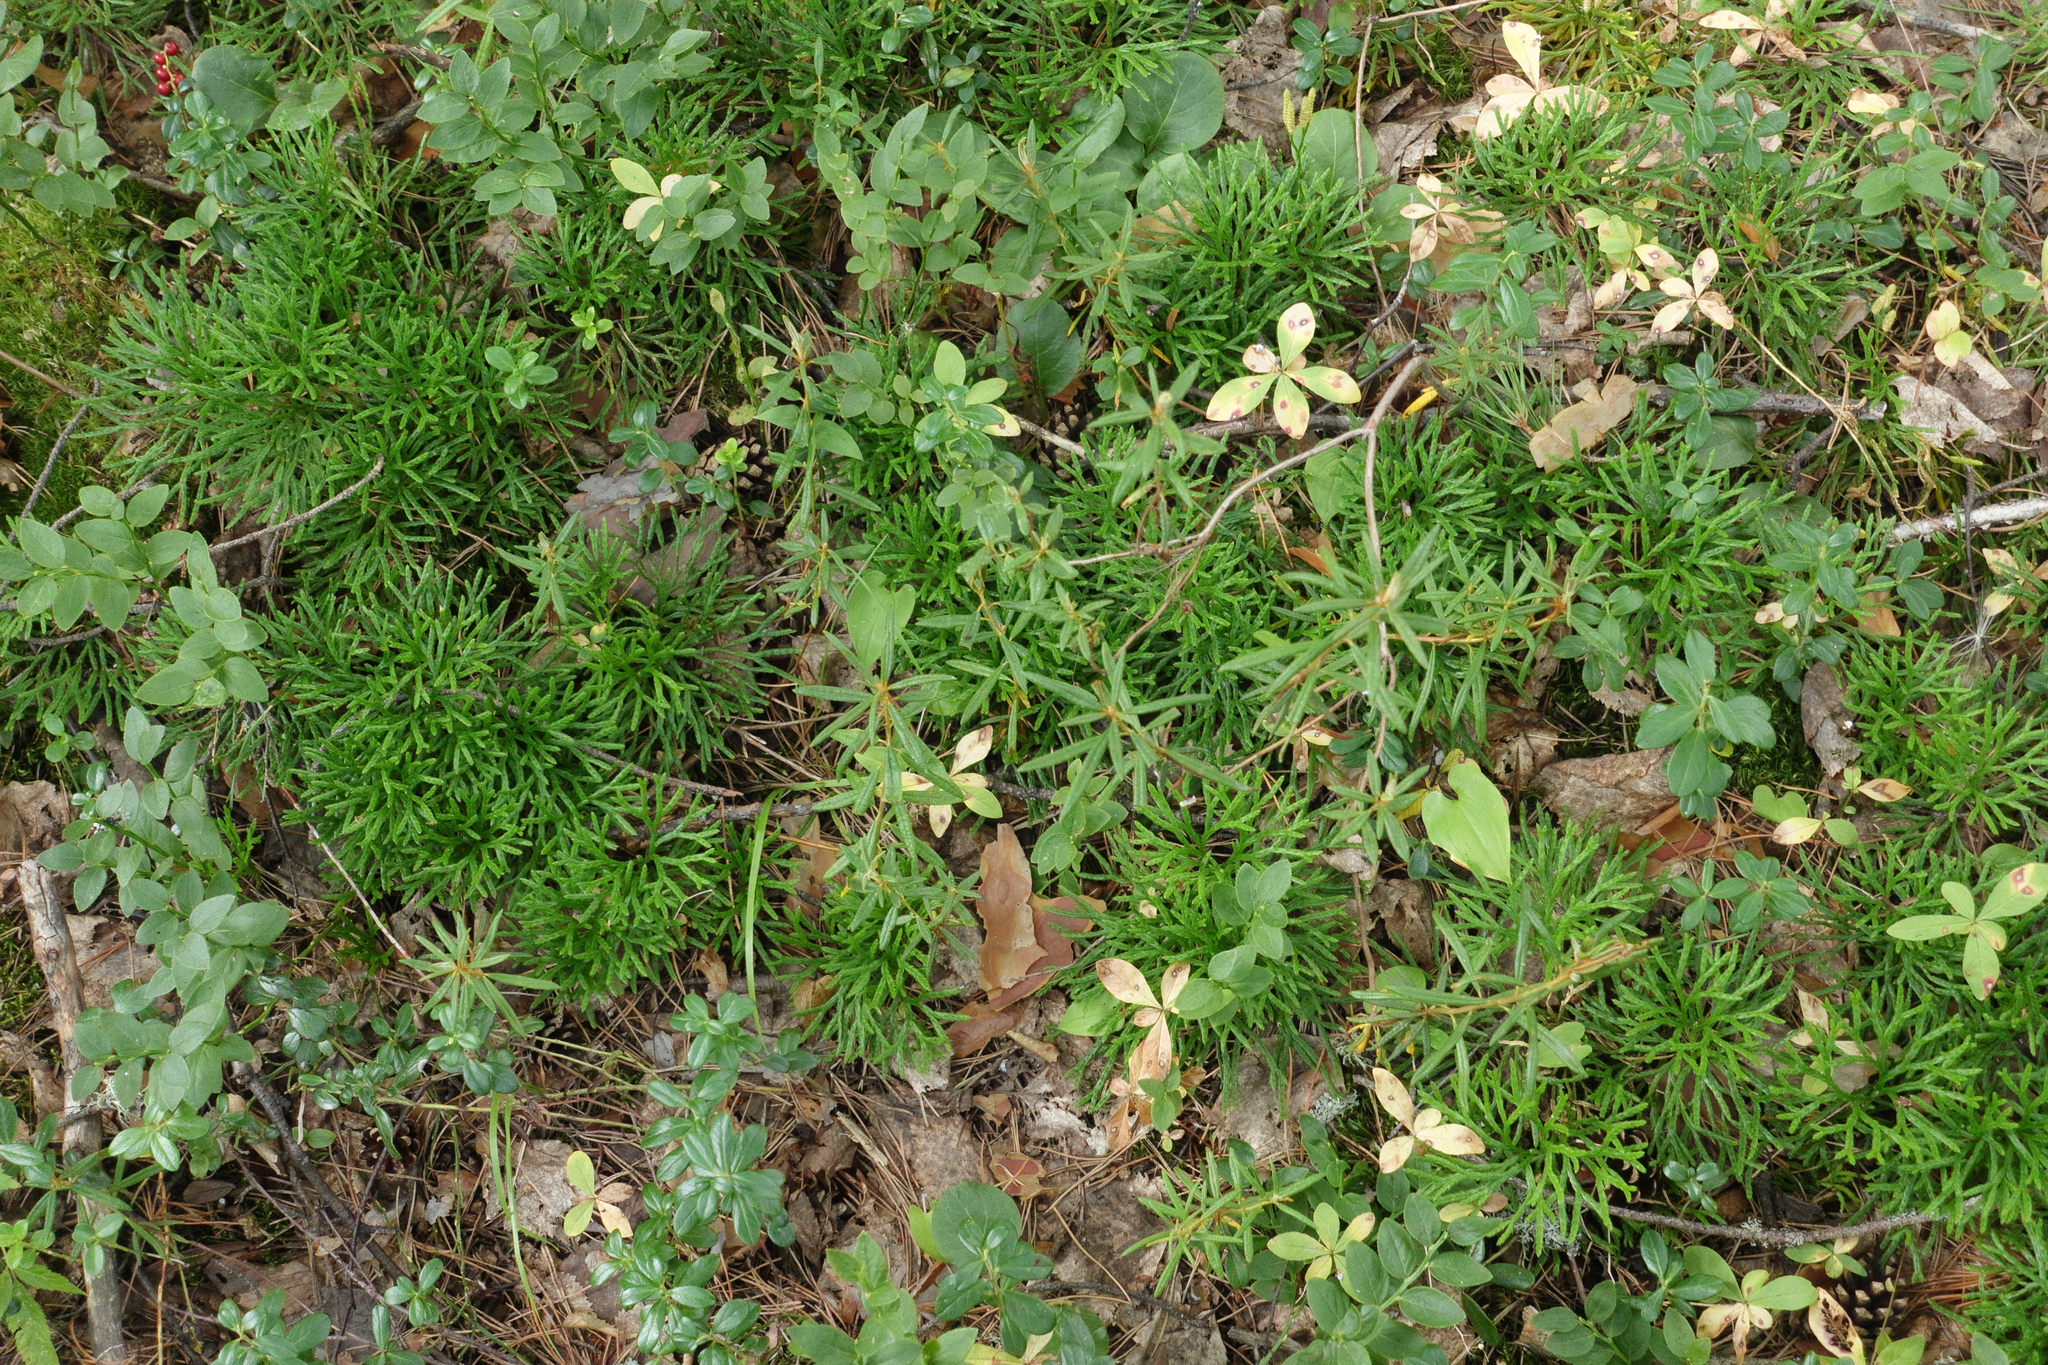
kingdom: Plantae
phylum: Tracheophyta
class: Magnoliopsida
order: Ericales
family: Primulaceae
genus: Lysimachia
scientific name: Lysimachia europaea
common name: Arctic starflower
